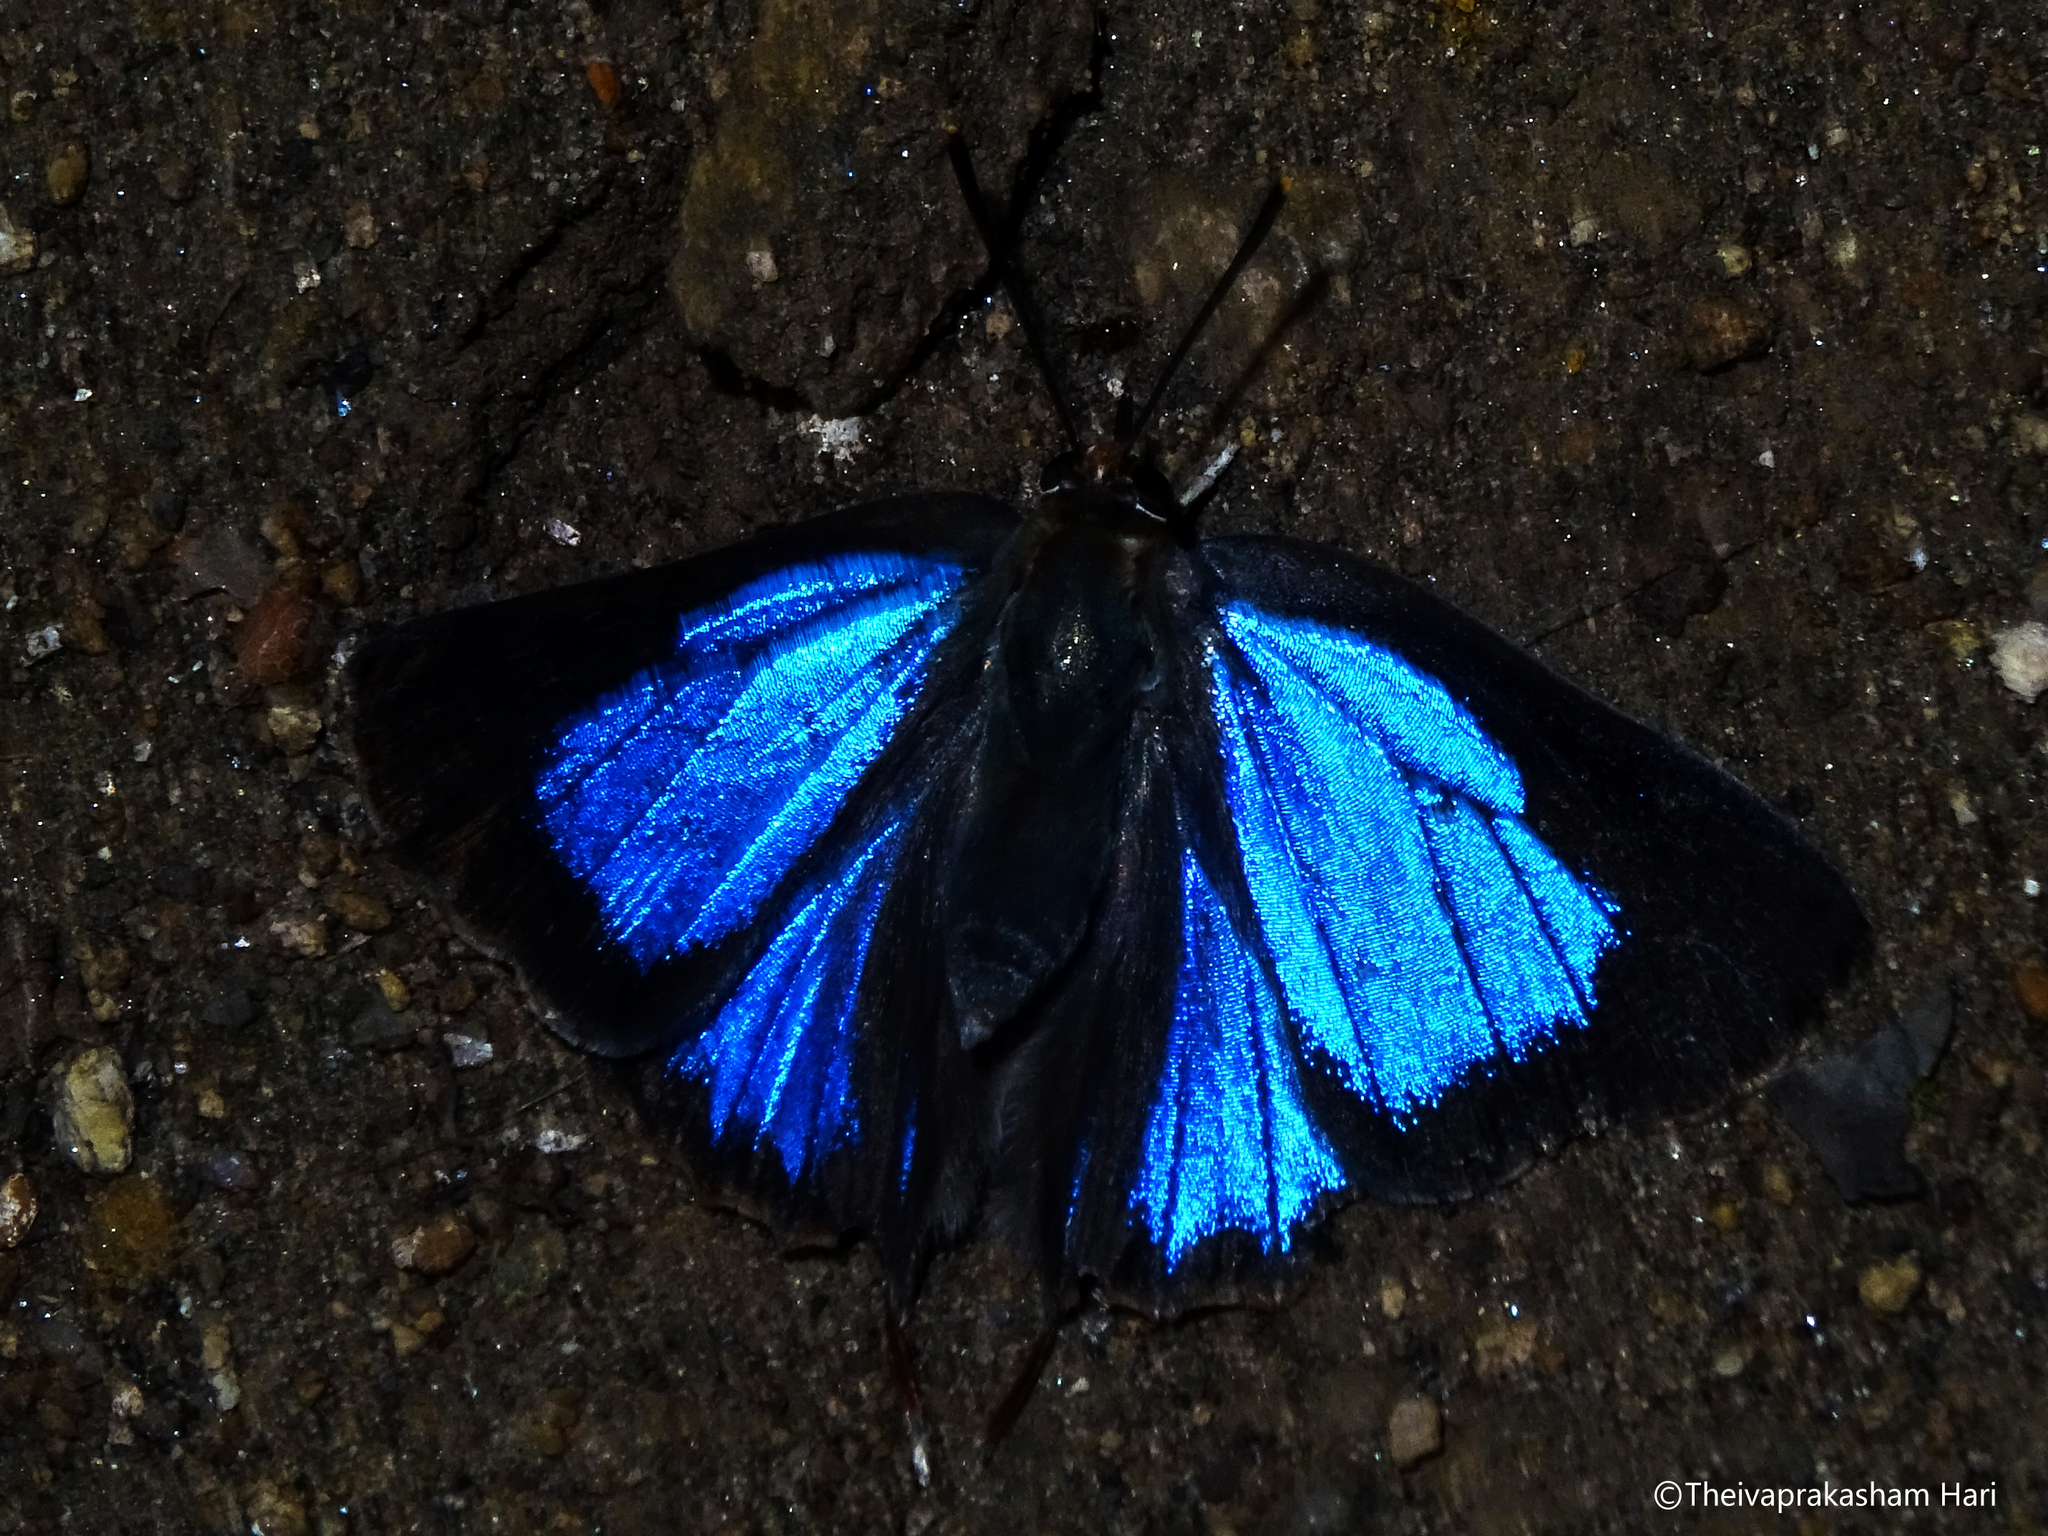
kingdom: Animalia
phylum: Arthropoda
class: Insecta
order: Lepidoptera
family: Lycaenidae
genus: Iraota
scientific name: Iraota timoleon
